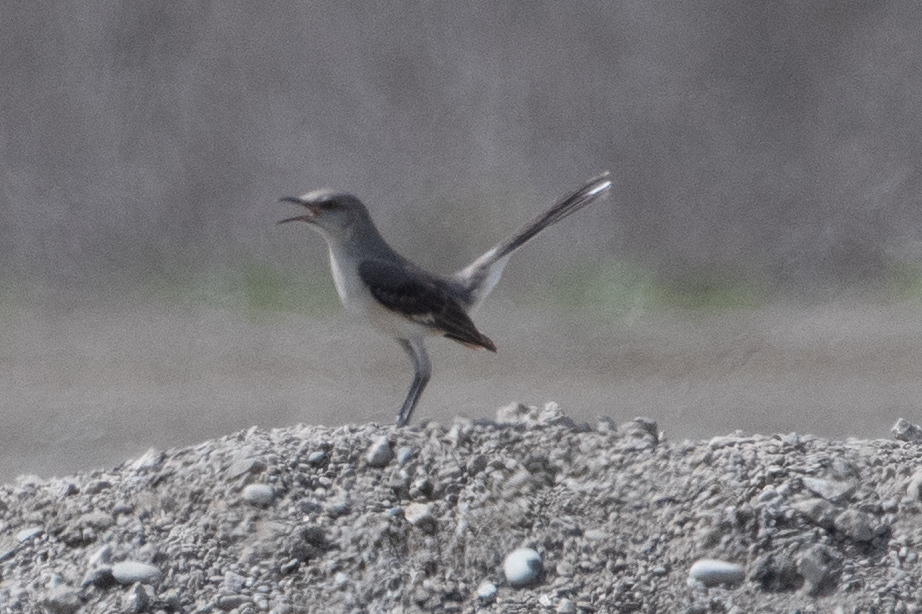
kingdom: Animalia
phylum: Chordata
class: Aves
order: Passeriformes
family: Mimidae
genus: Mimus
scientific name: Mimus polyglottos
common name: Northern mockingbird
